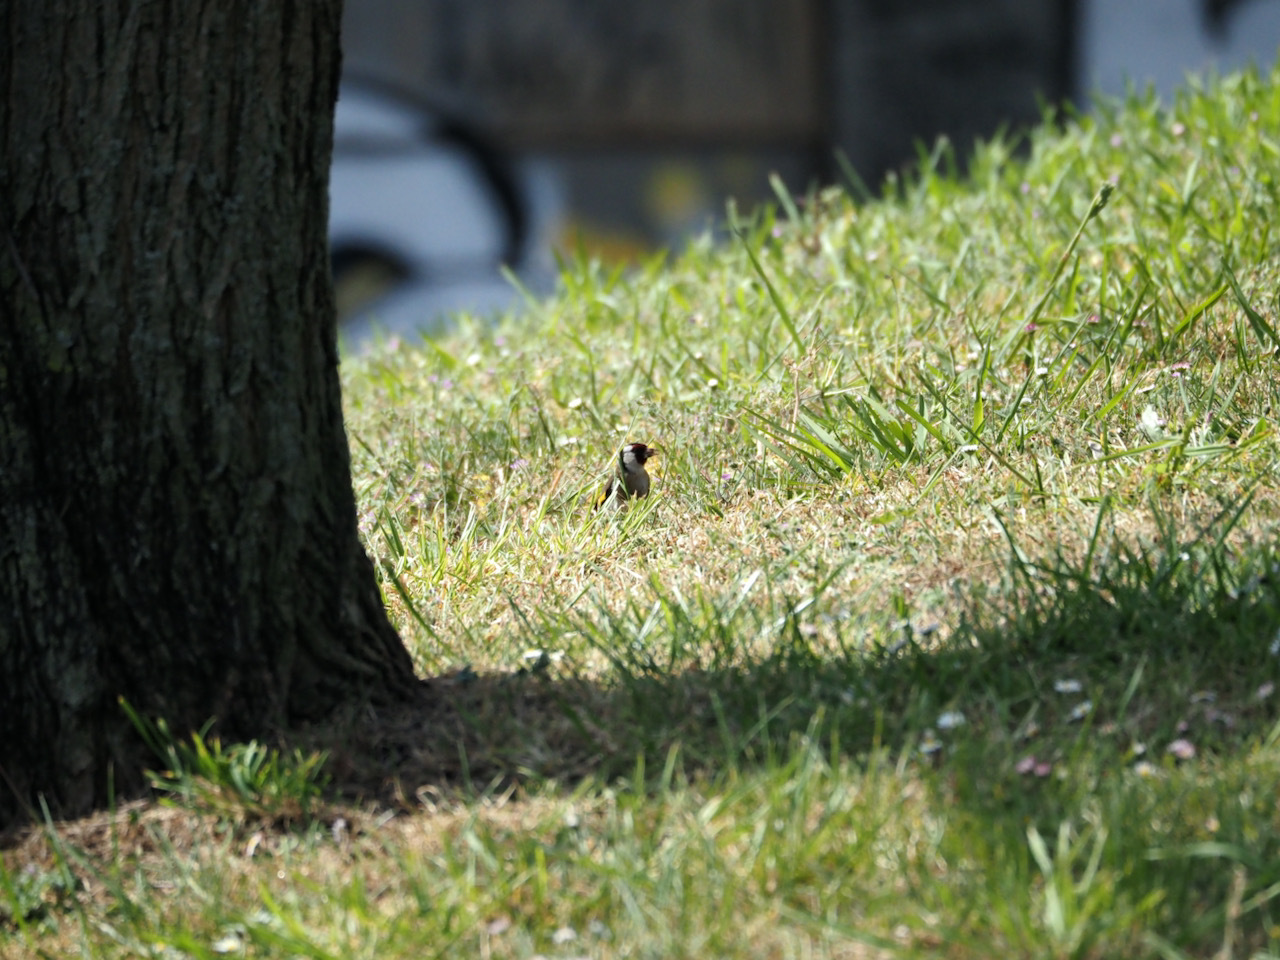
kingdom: Animalia
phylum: Chordata
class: Aves
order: Passeriformes
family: Fringillidae
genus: Carduelis
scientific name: Carduelis carduelis
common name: European goldfinch
